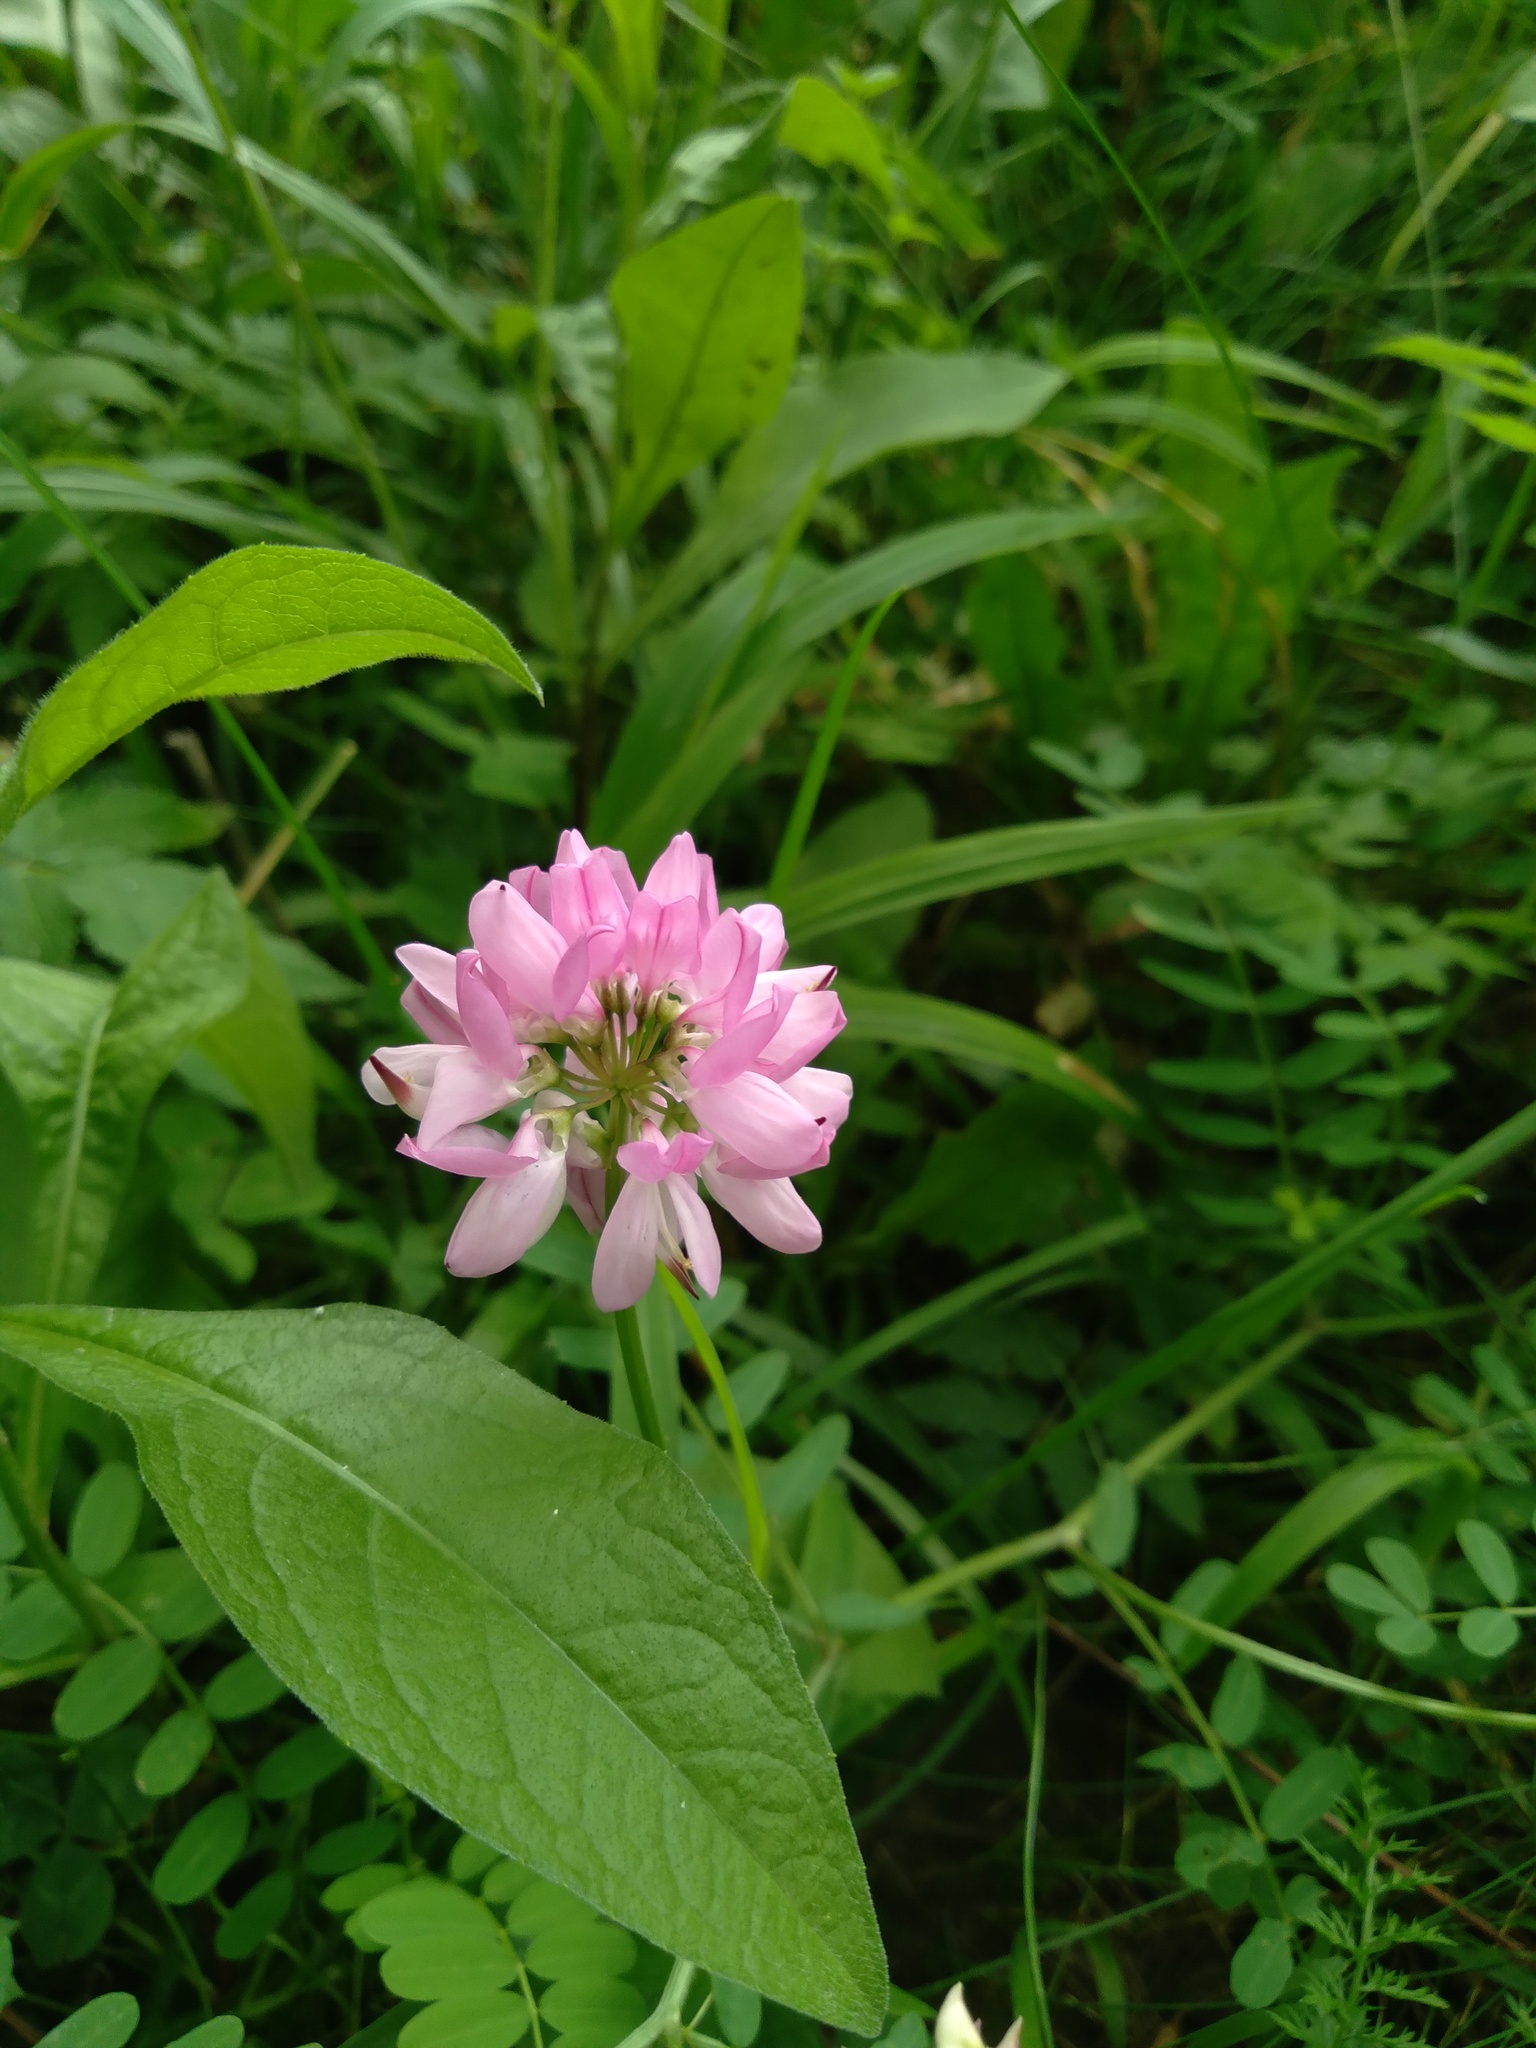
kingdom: Plantae
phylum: Tracheophyta
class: Magnoliopsida
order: Fabales
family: Fabaceae
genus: Coronilla
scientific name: Coronilla varia
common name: Crownvetch
